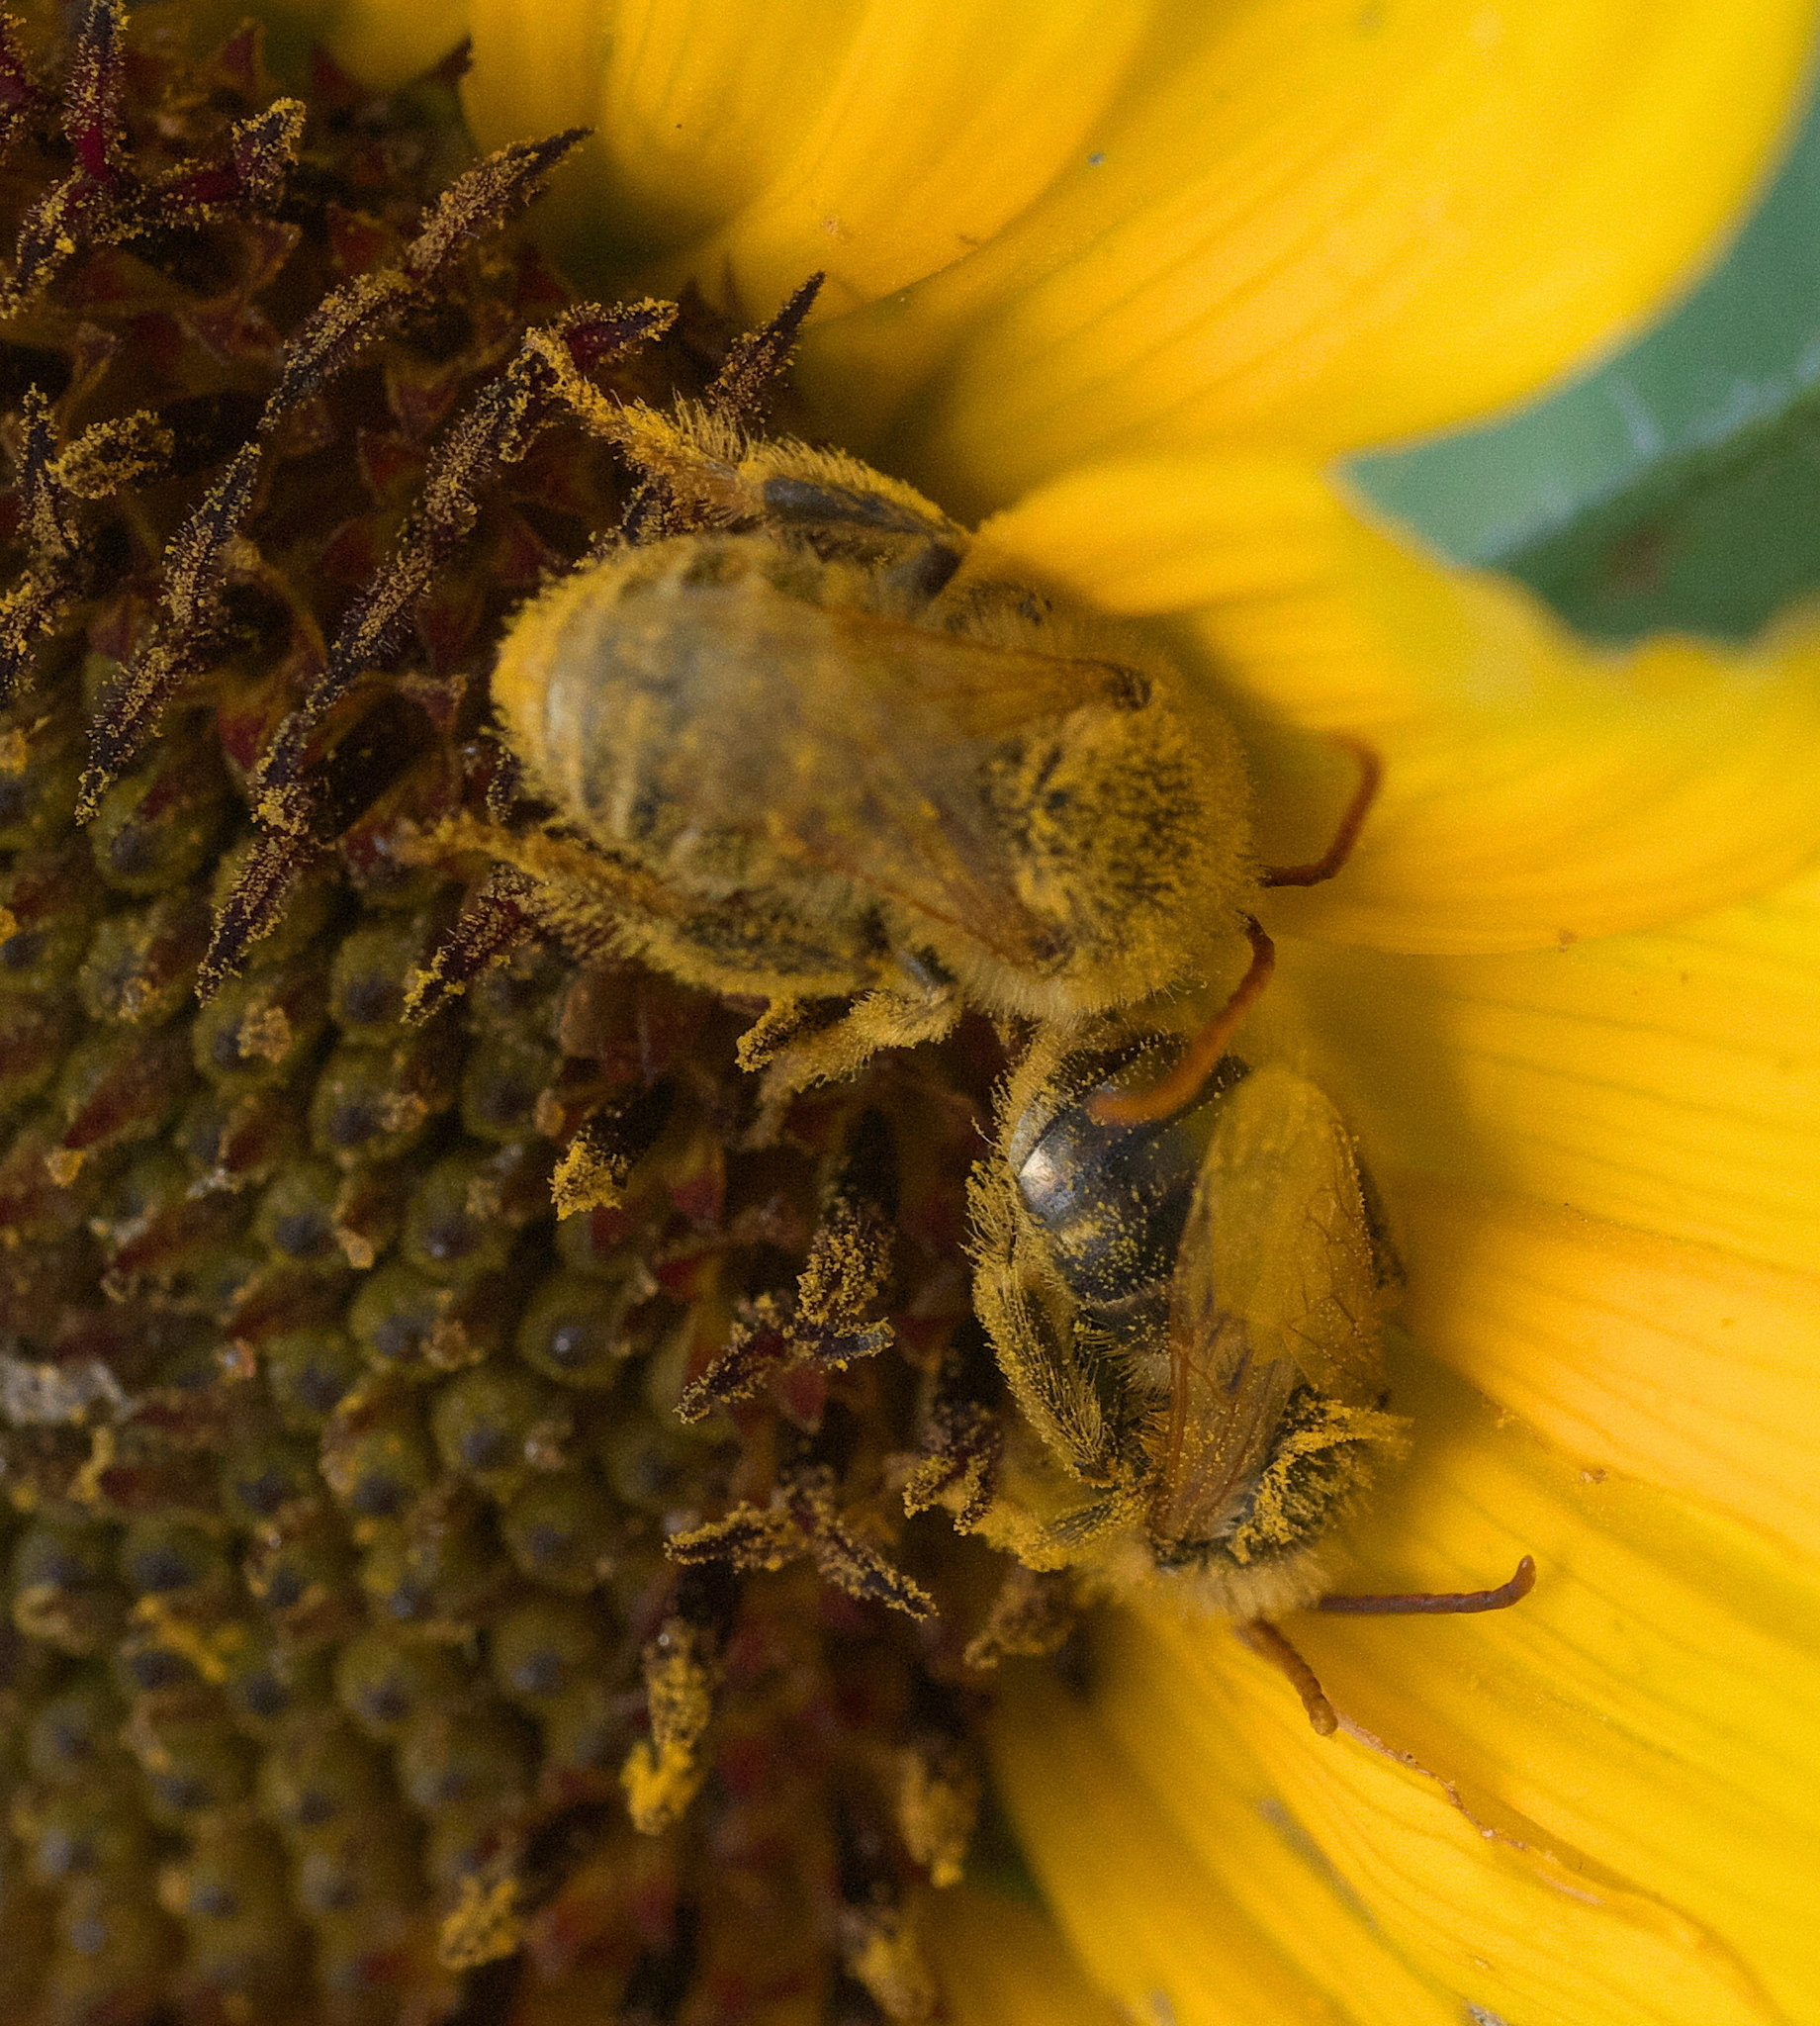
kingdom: Animalia
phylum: Arthropoda
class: Insecta
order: Hymenoptera
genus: Eumelissodes
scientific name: Eumelissodes
